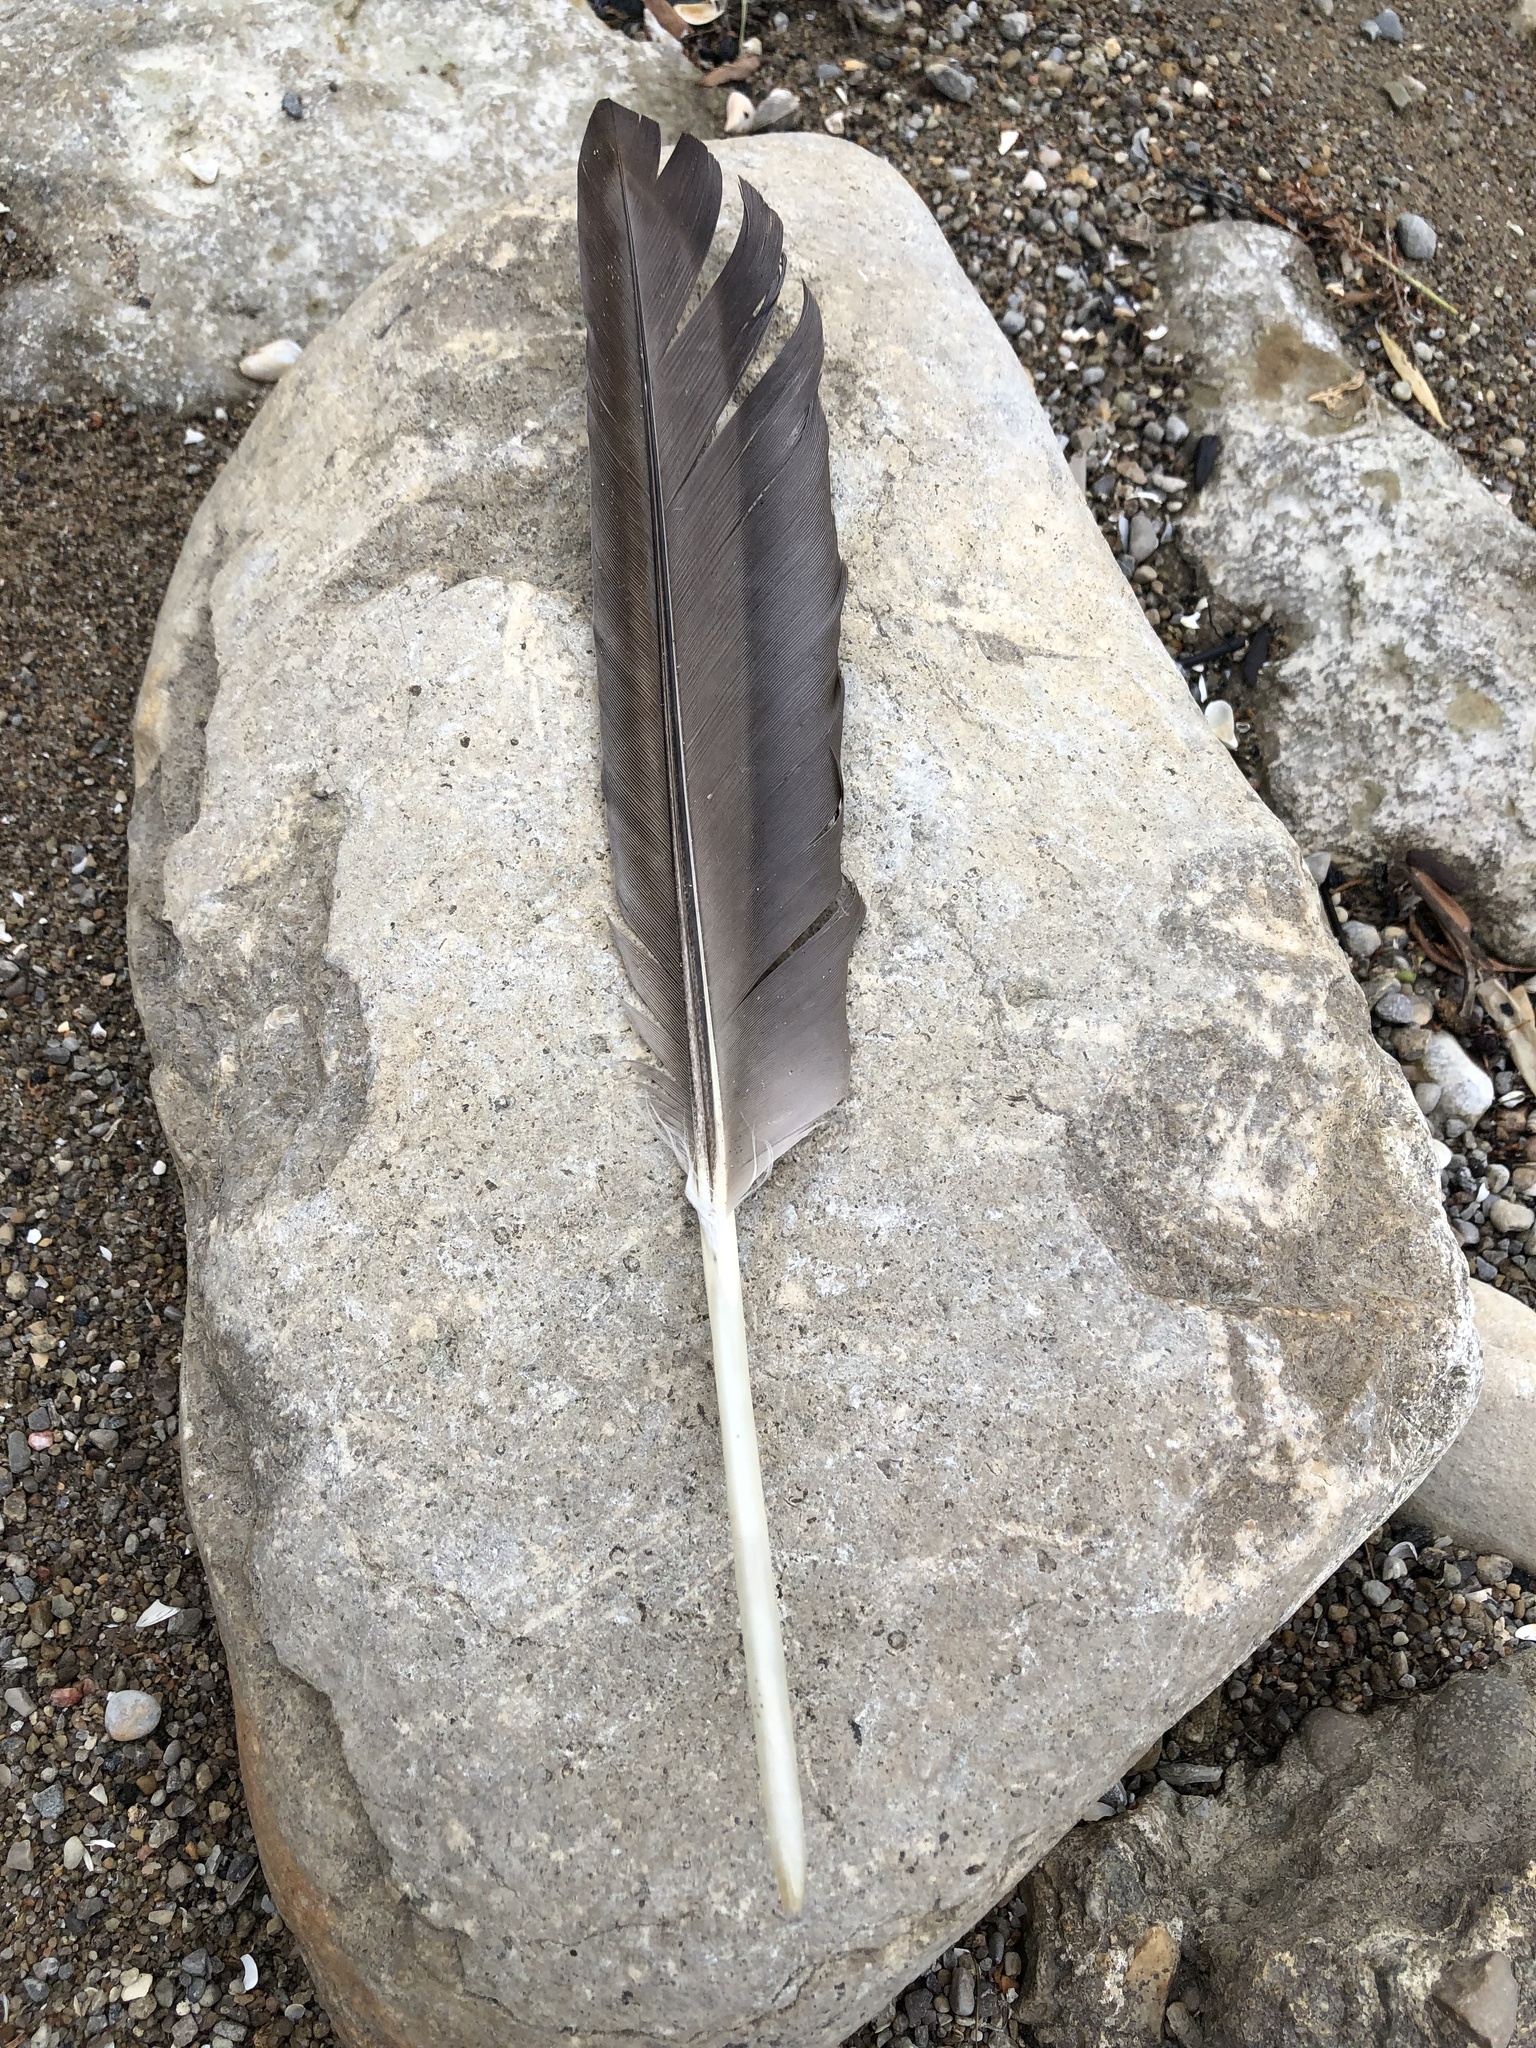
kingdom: Animalia
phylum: Chordata
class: Aves
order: Anseriformes
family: Anatidae
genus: Branta
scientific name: Branta canadensis
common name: Canada goose
